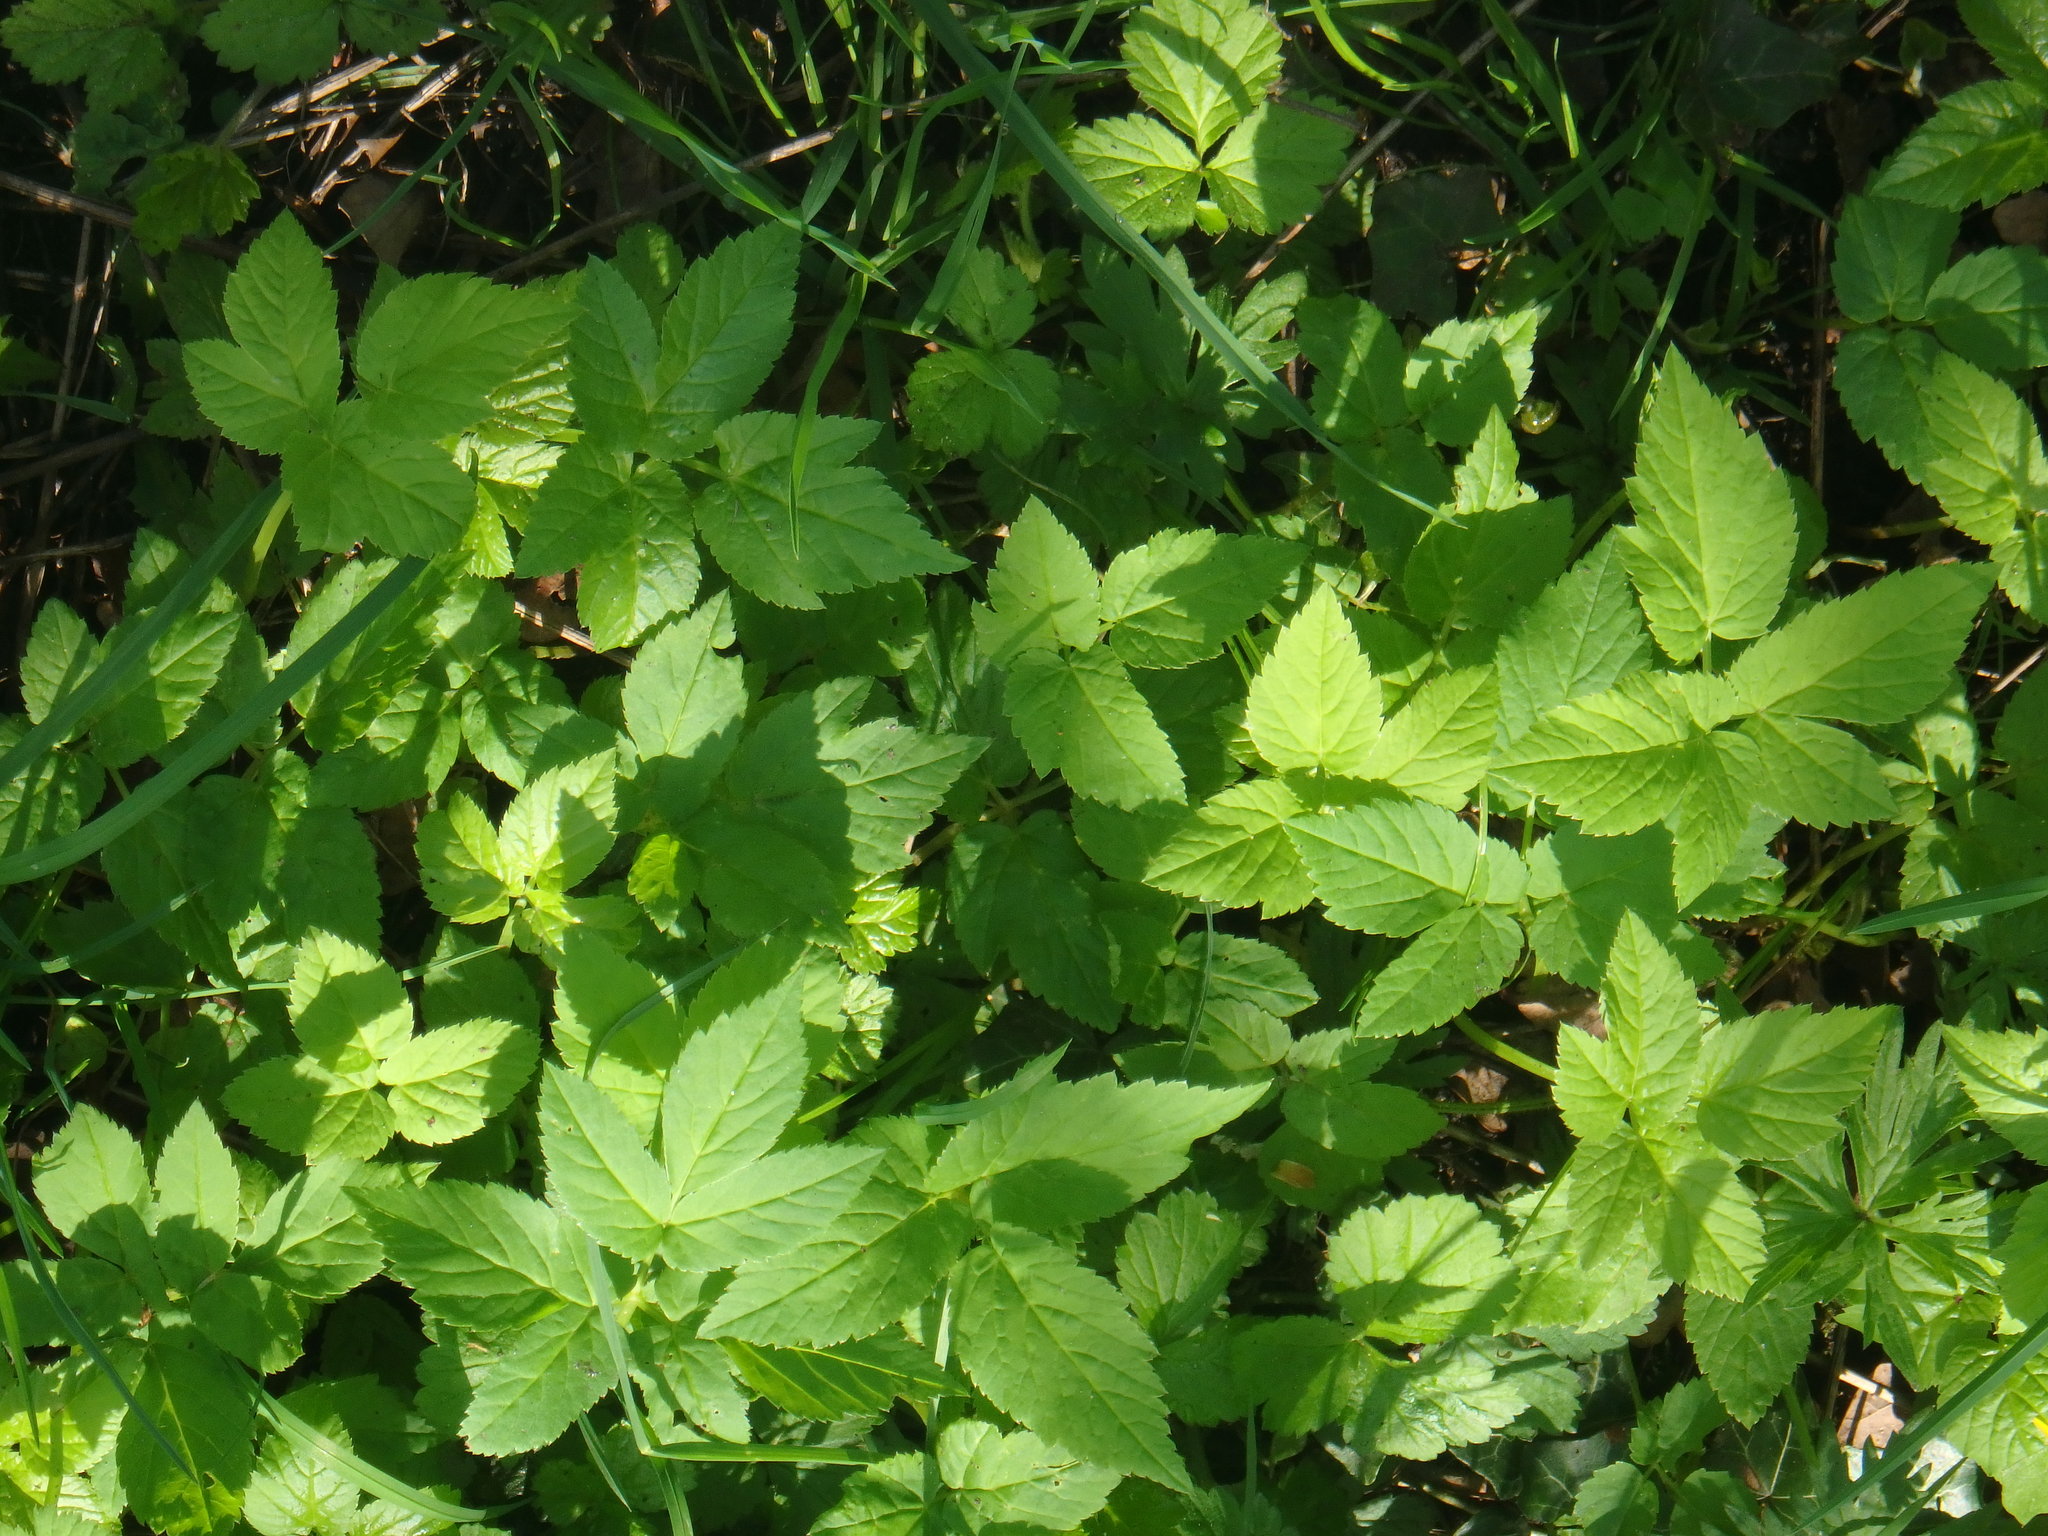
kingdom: Plantae
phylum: Tracheophyta
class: Magnoliopsida
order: Apiales
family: Apiaceae
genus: Aegopodium
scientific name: Aegopodium podagraria
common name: Ground-elder
